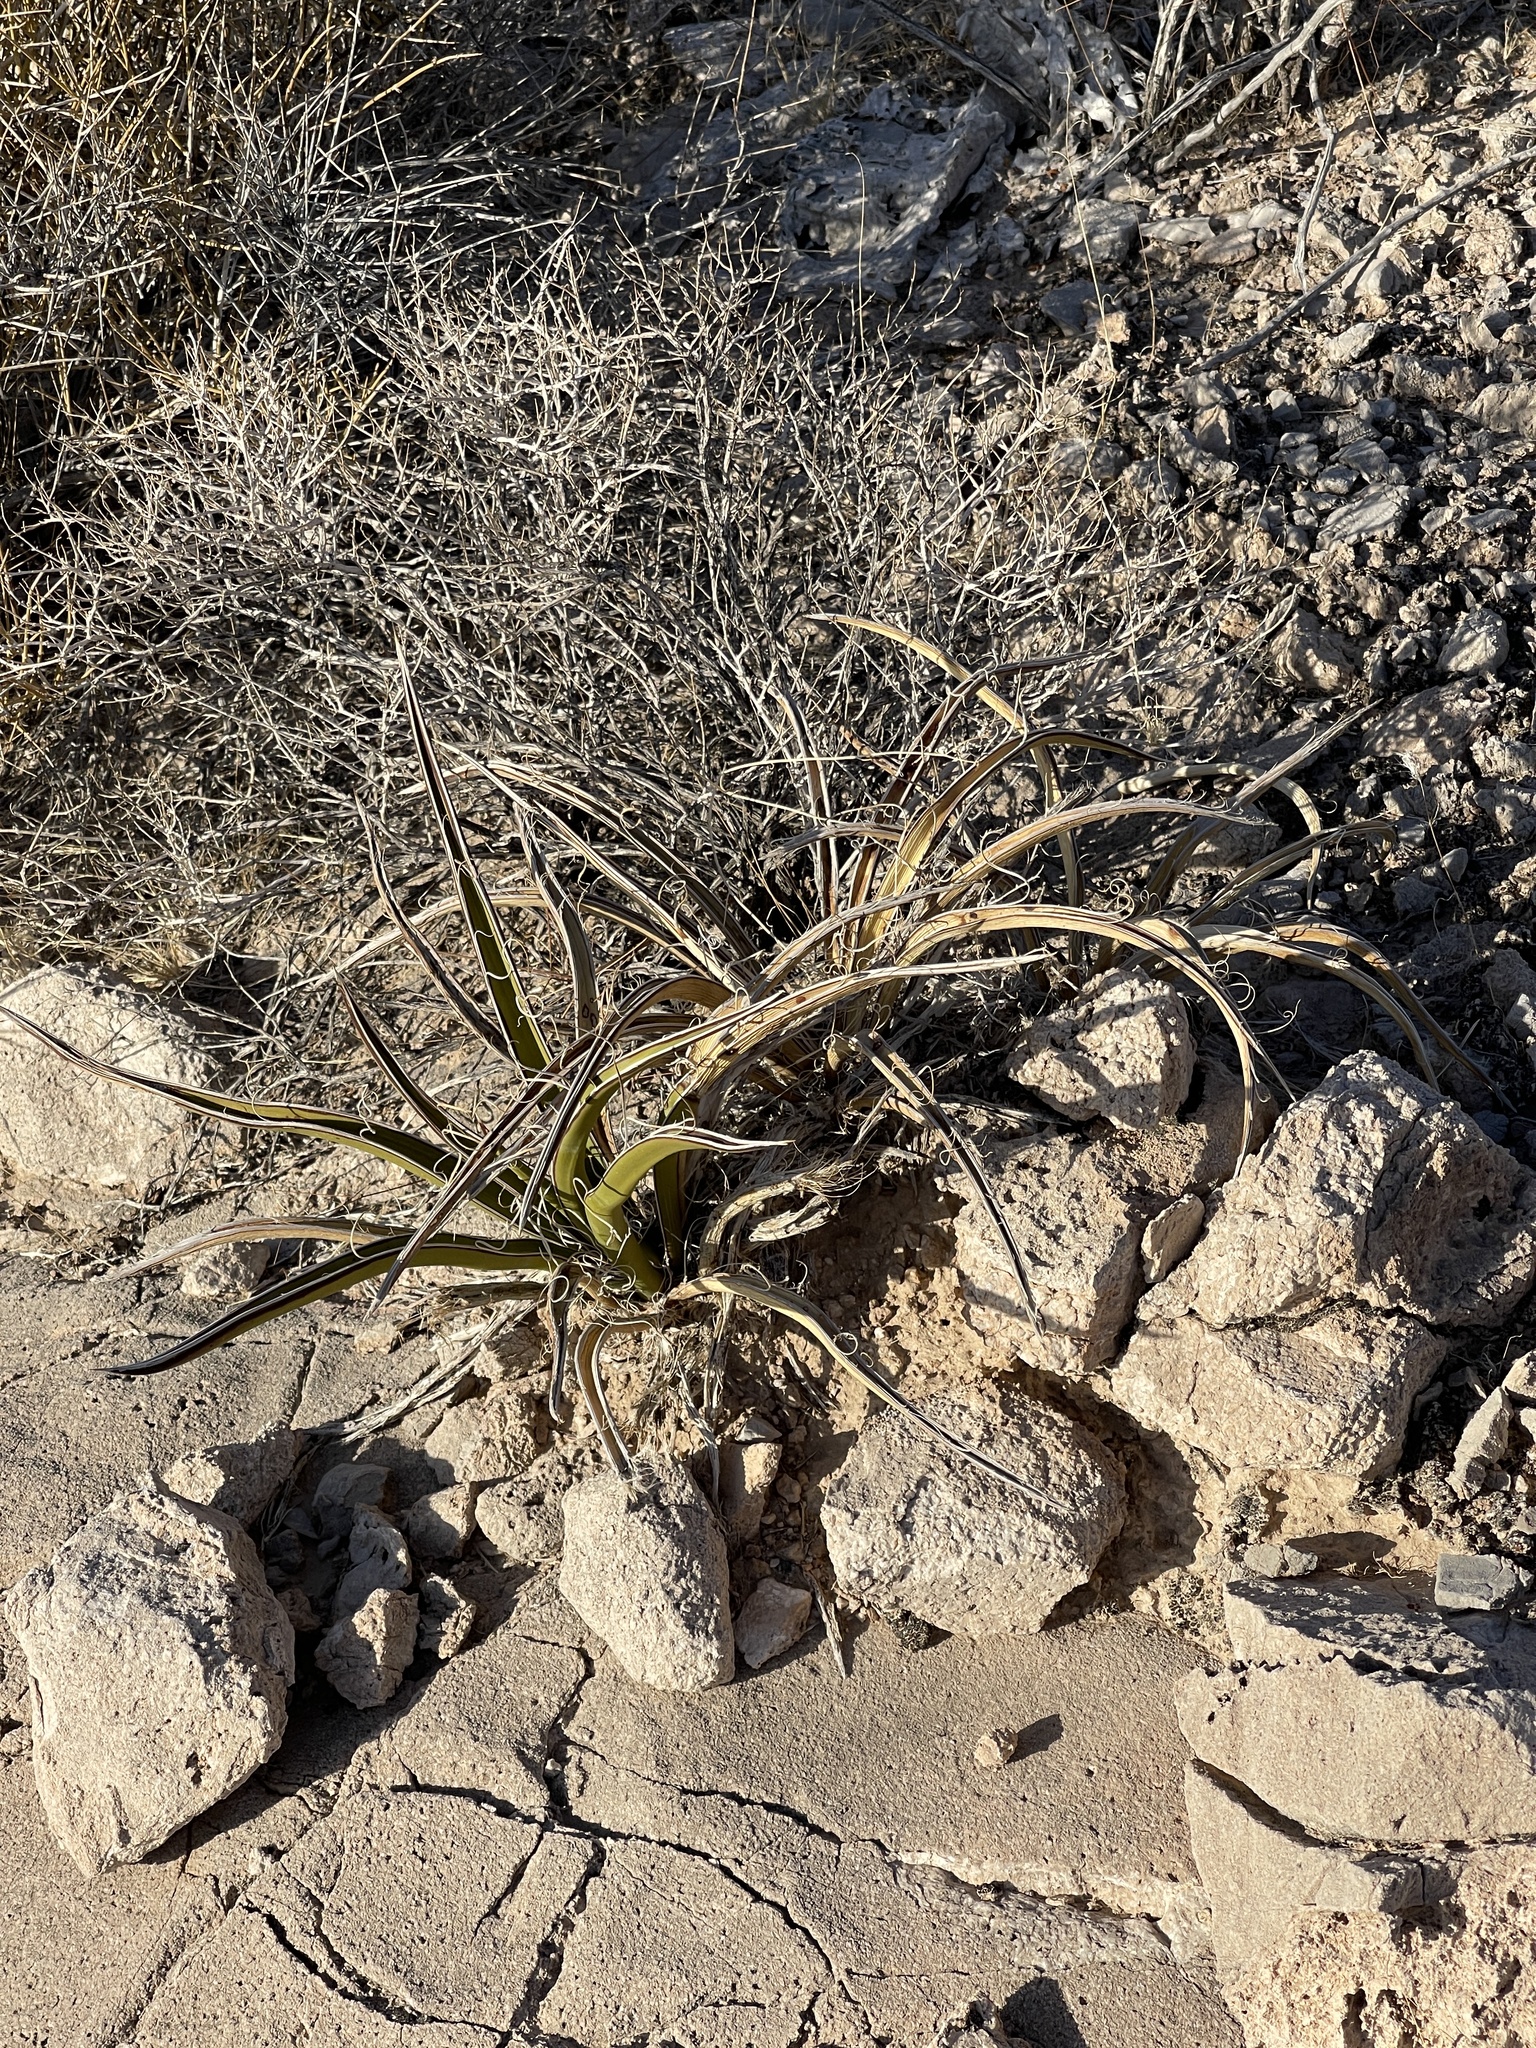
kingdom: Plantae
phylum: Tracheophyta
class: Liliopsida
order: Asparagales
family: Asparagaceae
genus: Yucca
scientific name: Yucca schidigera
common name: Mojave yucca
